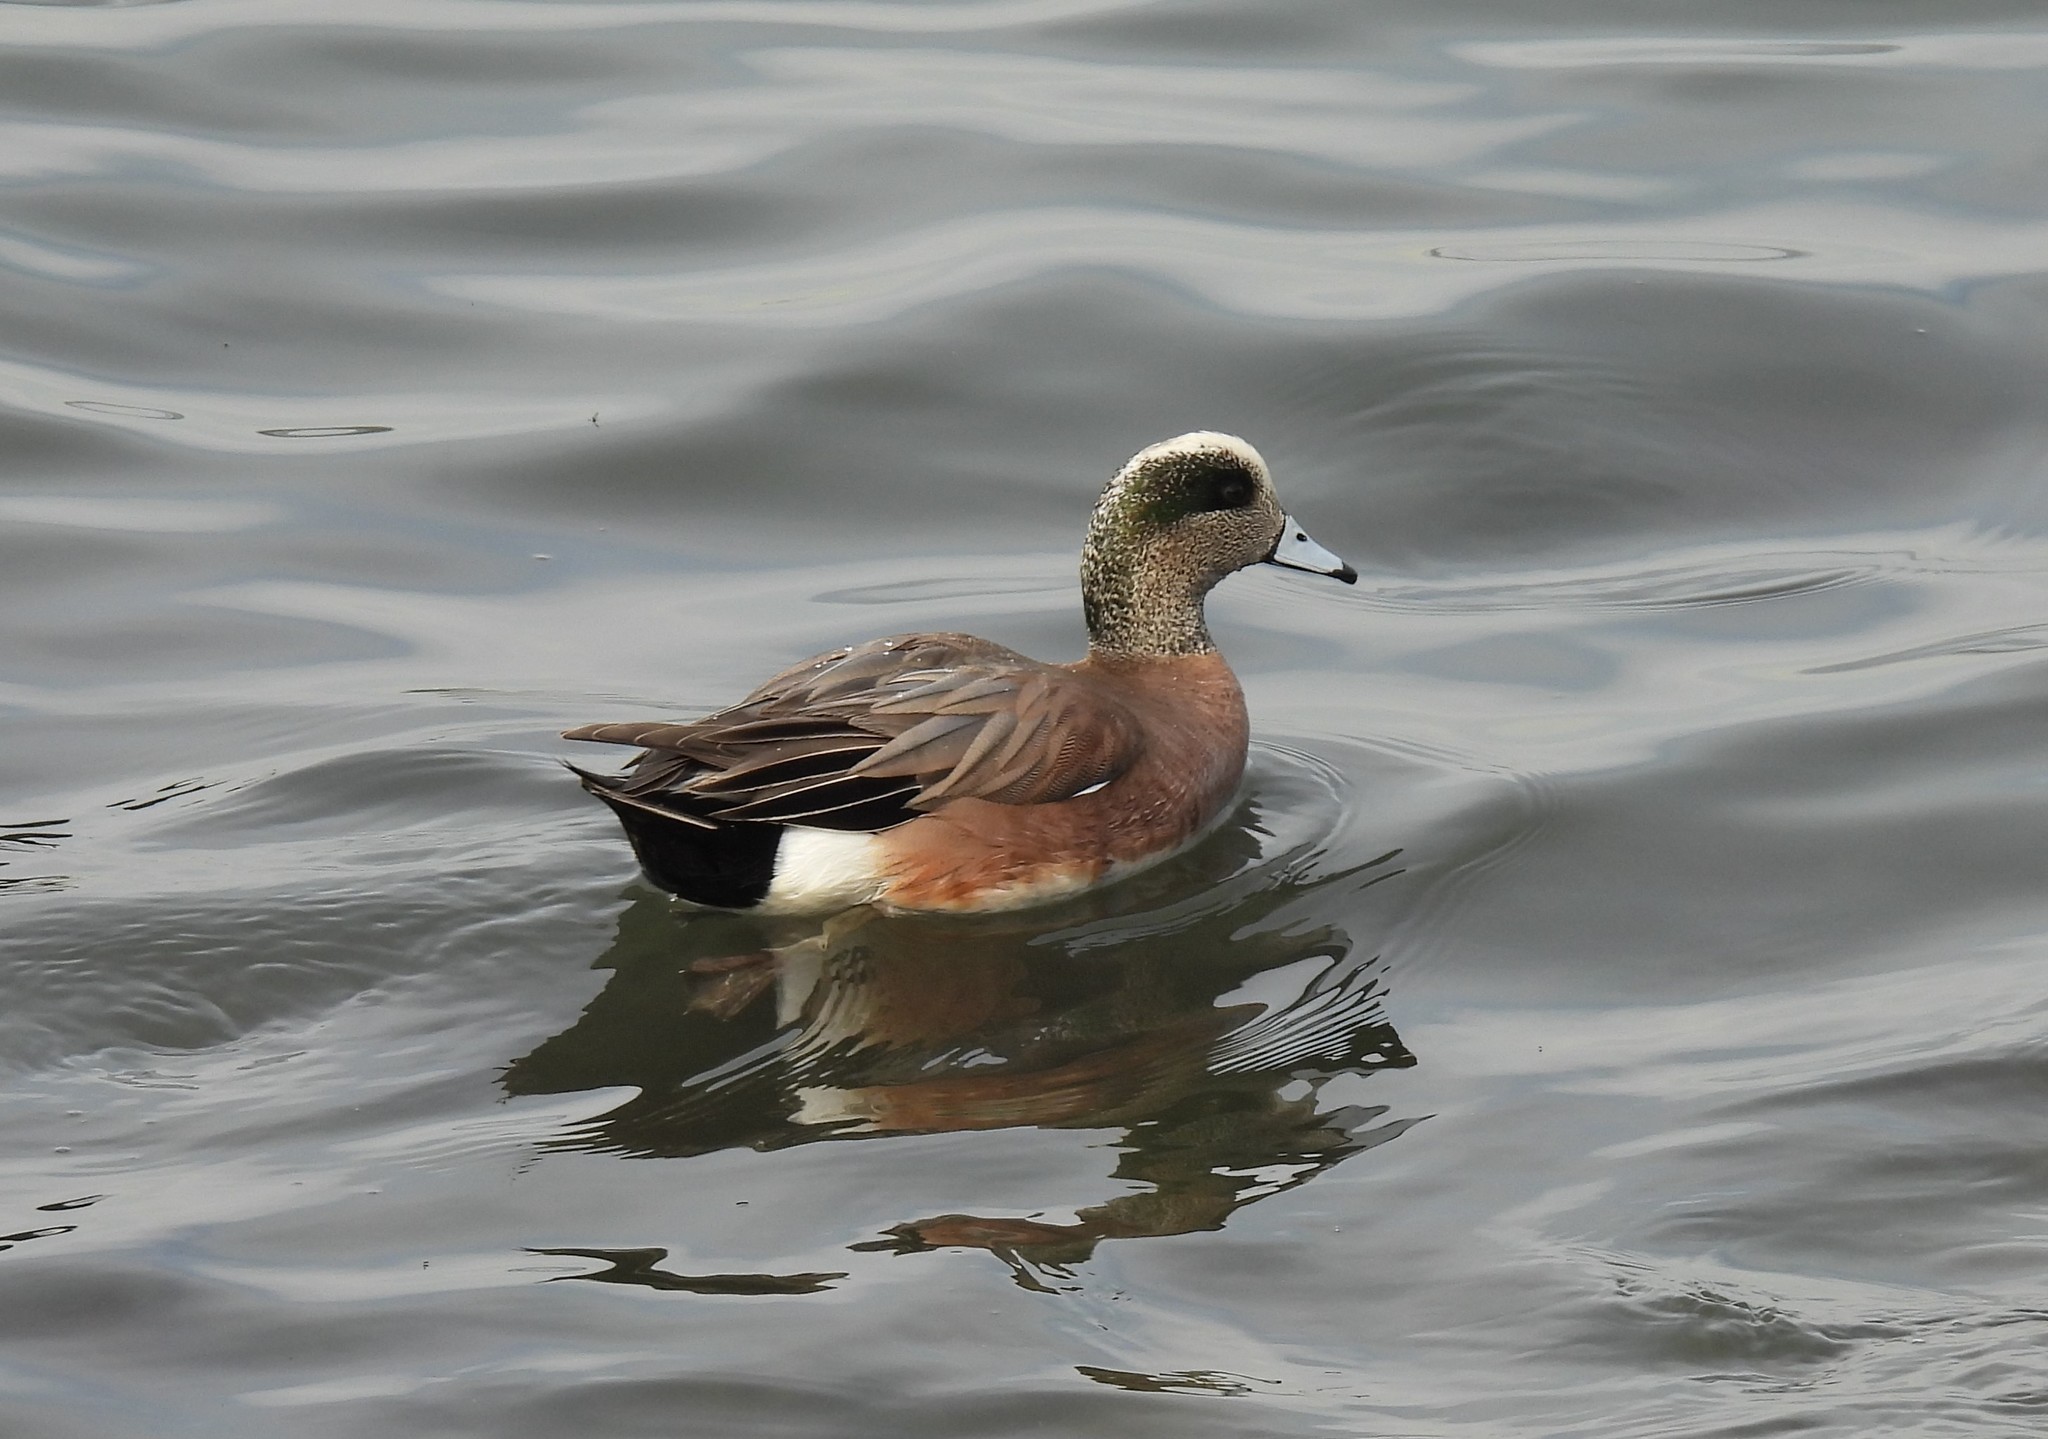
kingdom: Animalia
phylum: Chordata
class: Aves
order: Anseriformes
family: Anatidae
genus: Mareca
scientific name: Mareca americana
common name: American wigeon
